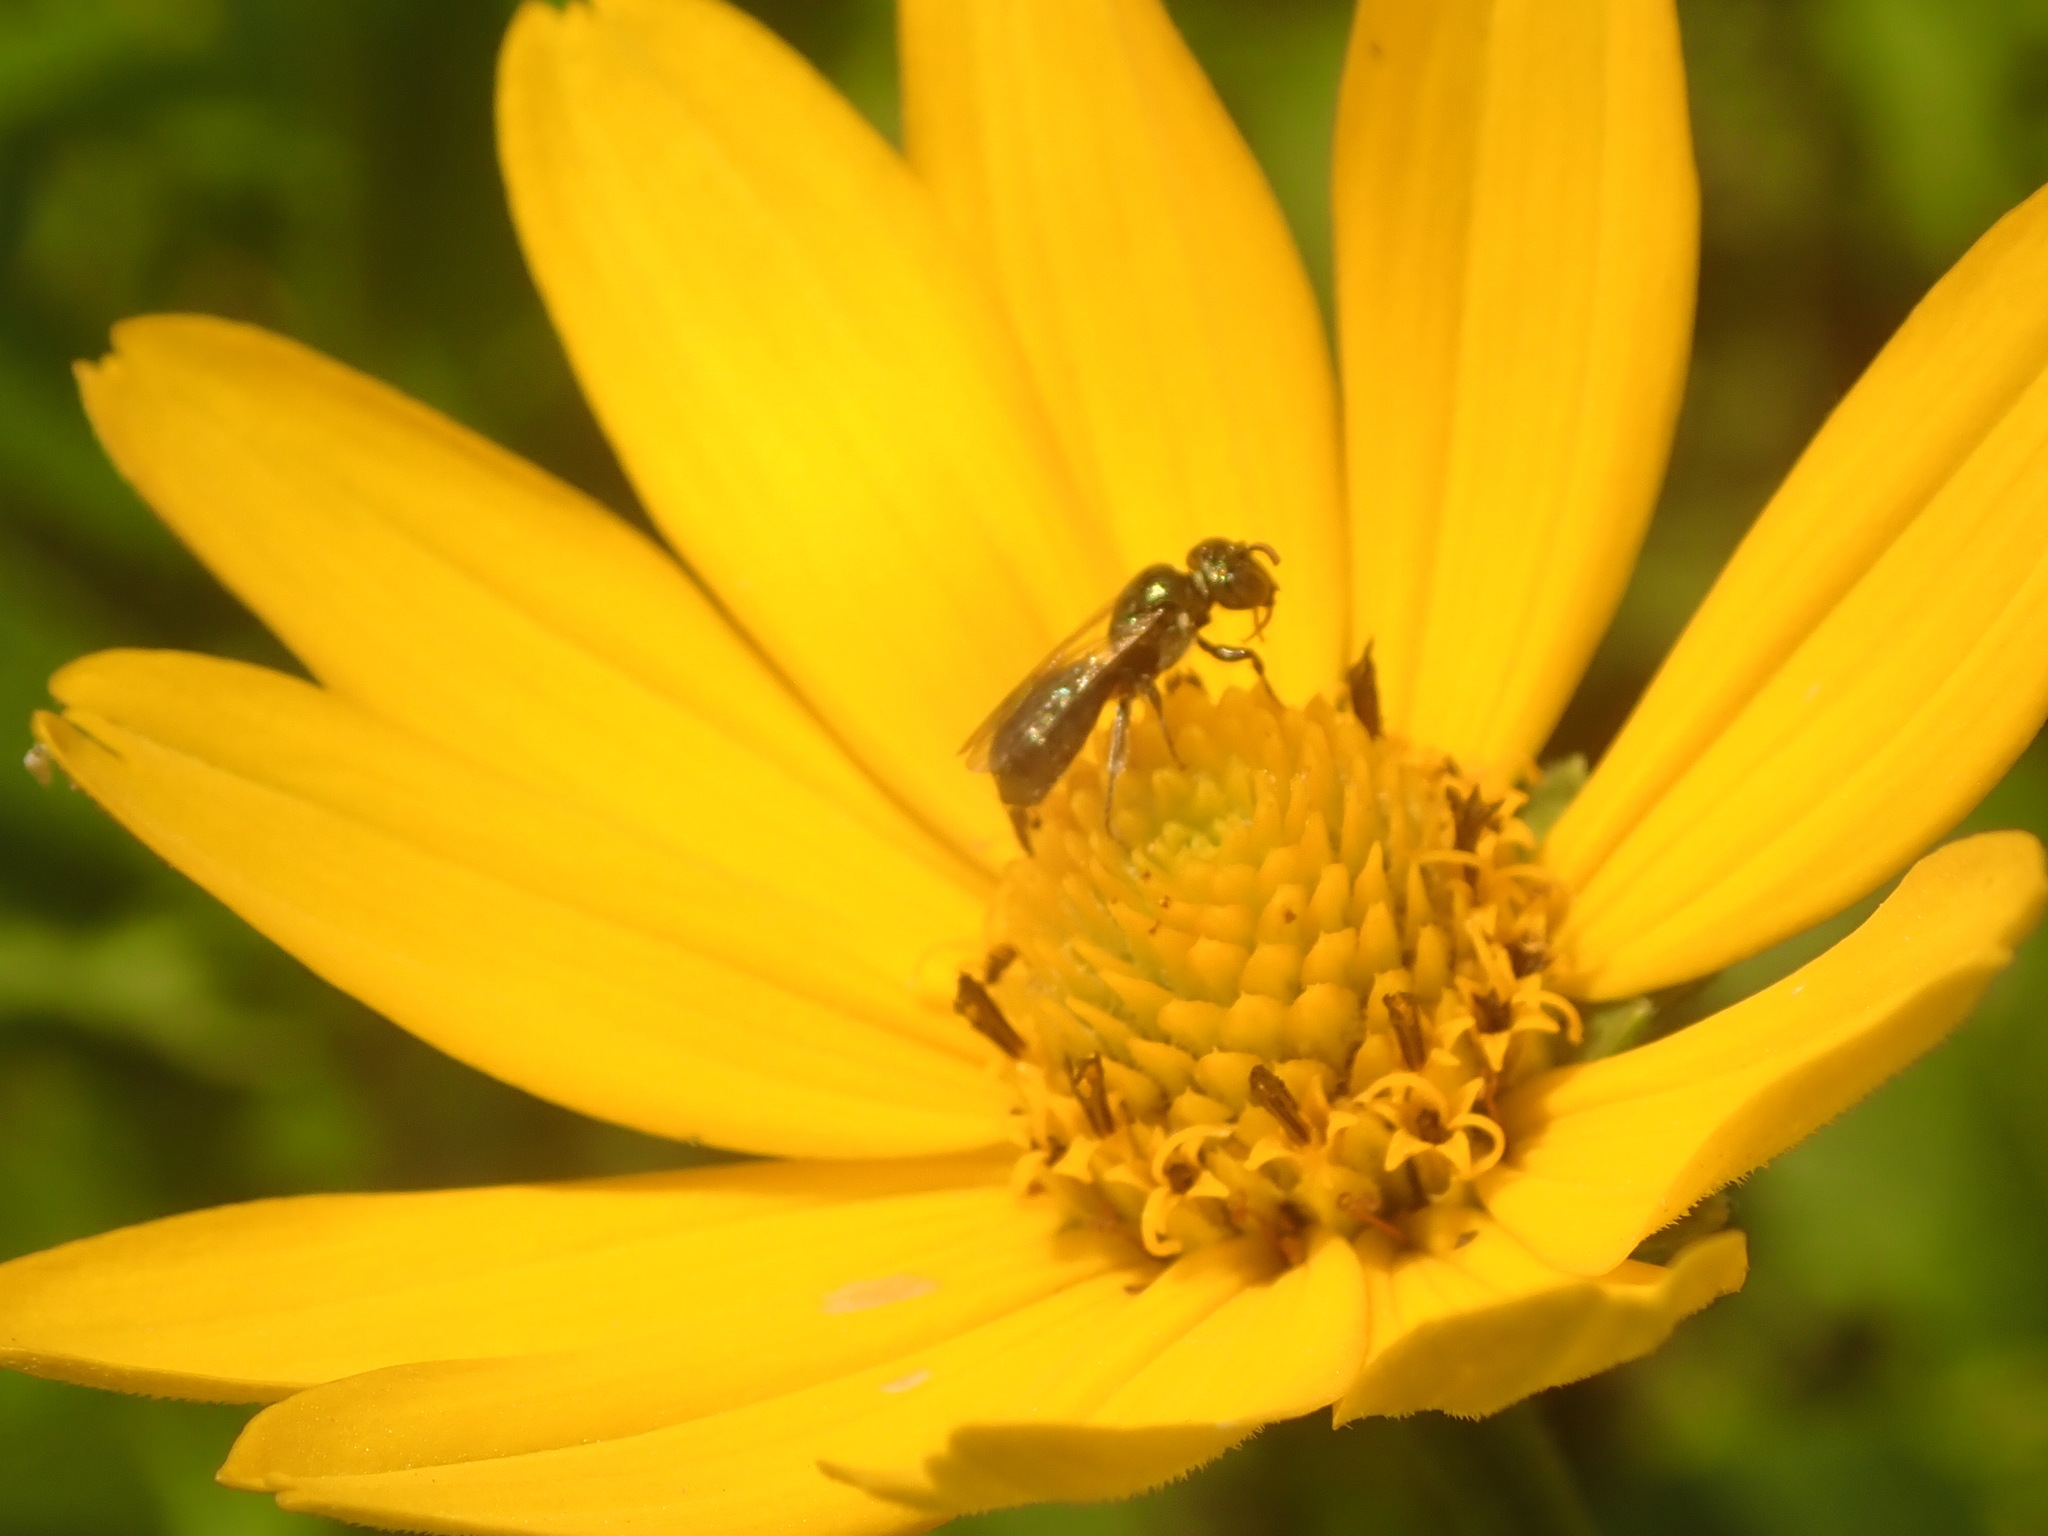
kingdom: Animalia
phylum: Arthropoda
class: Insecta
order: Hymenoptera
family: Apidae
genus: Zadontomerus
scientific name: Zadontomerus
